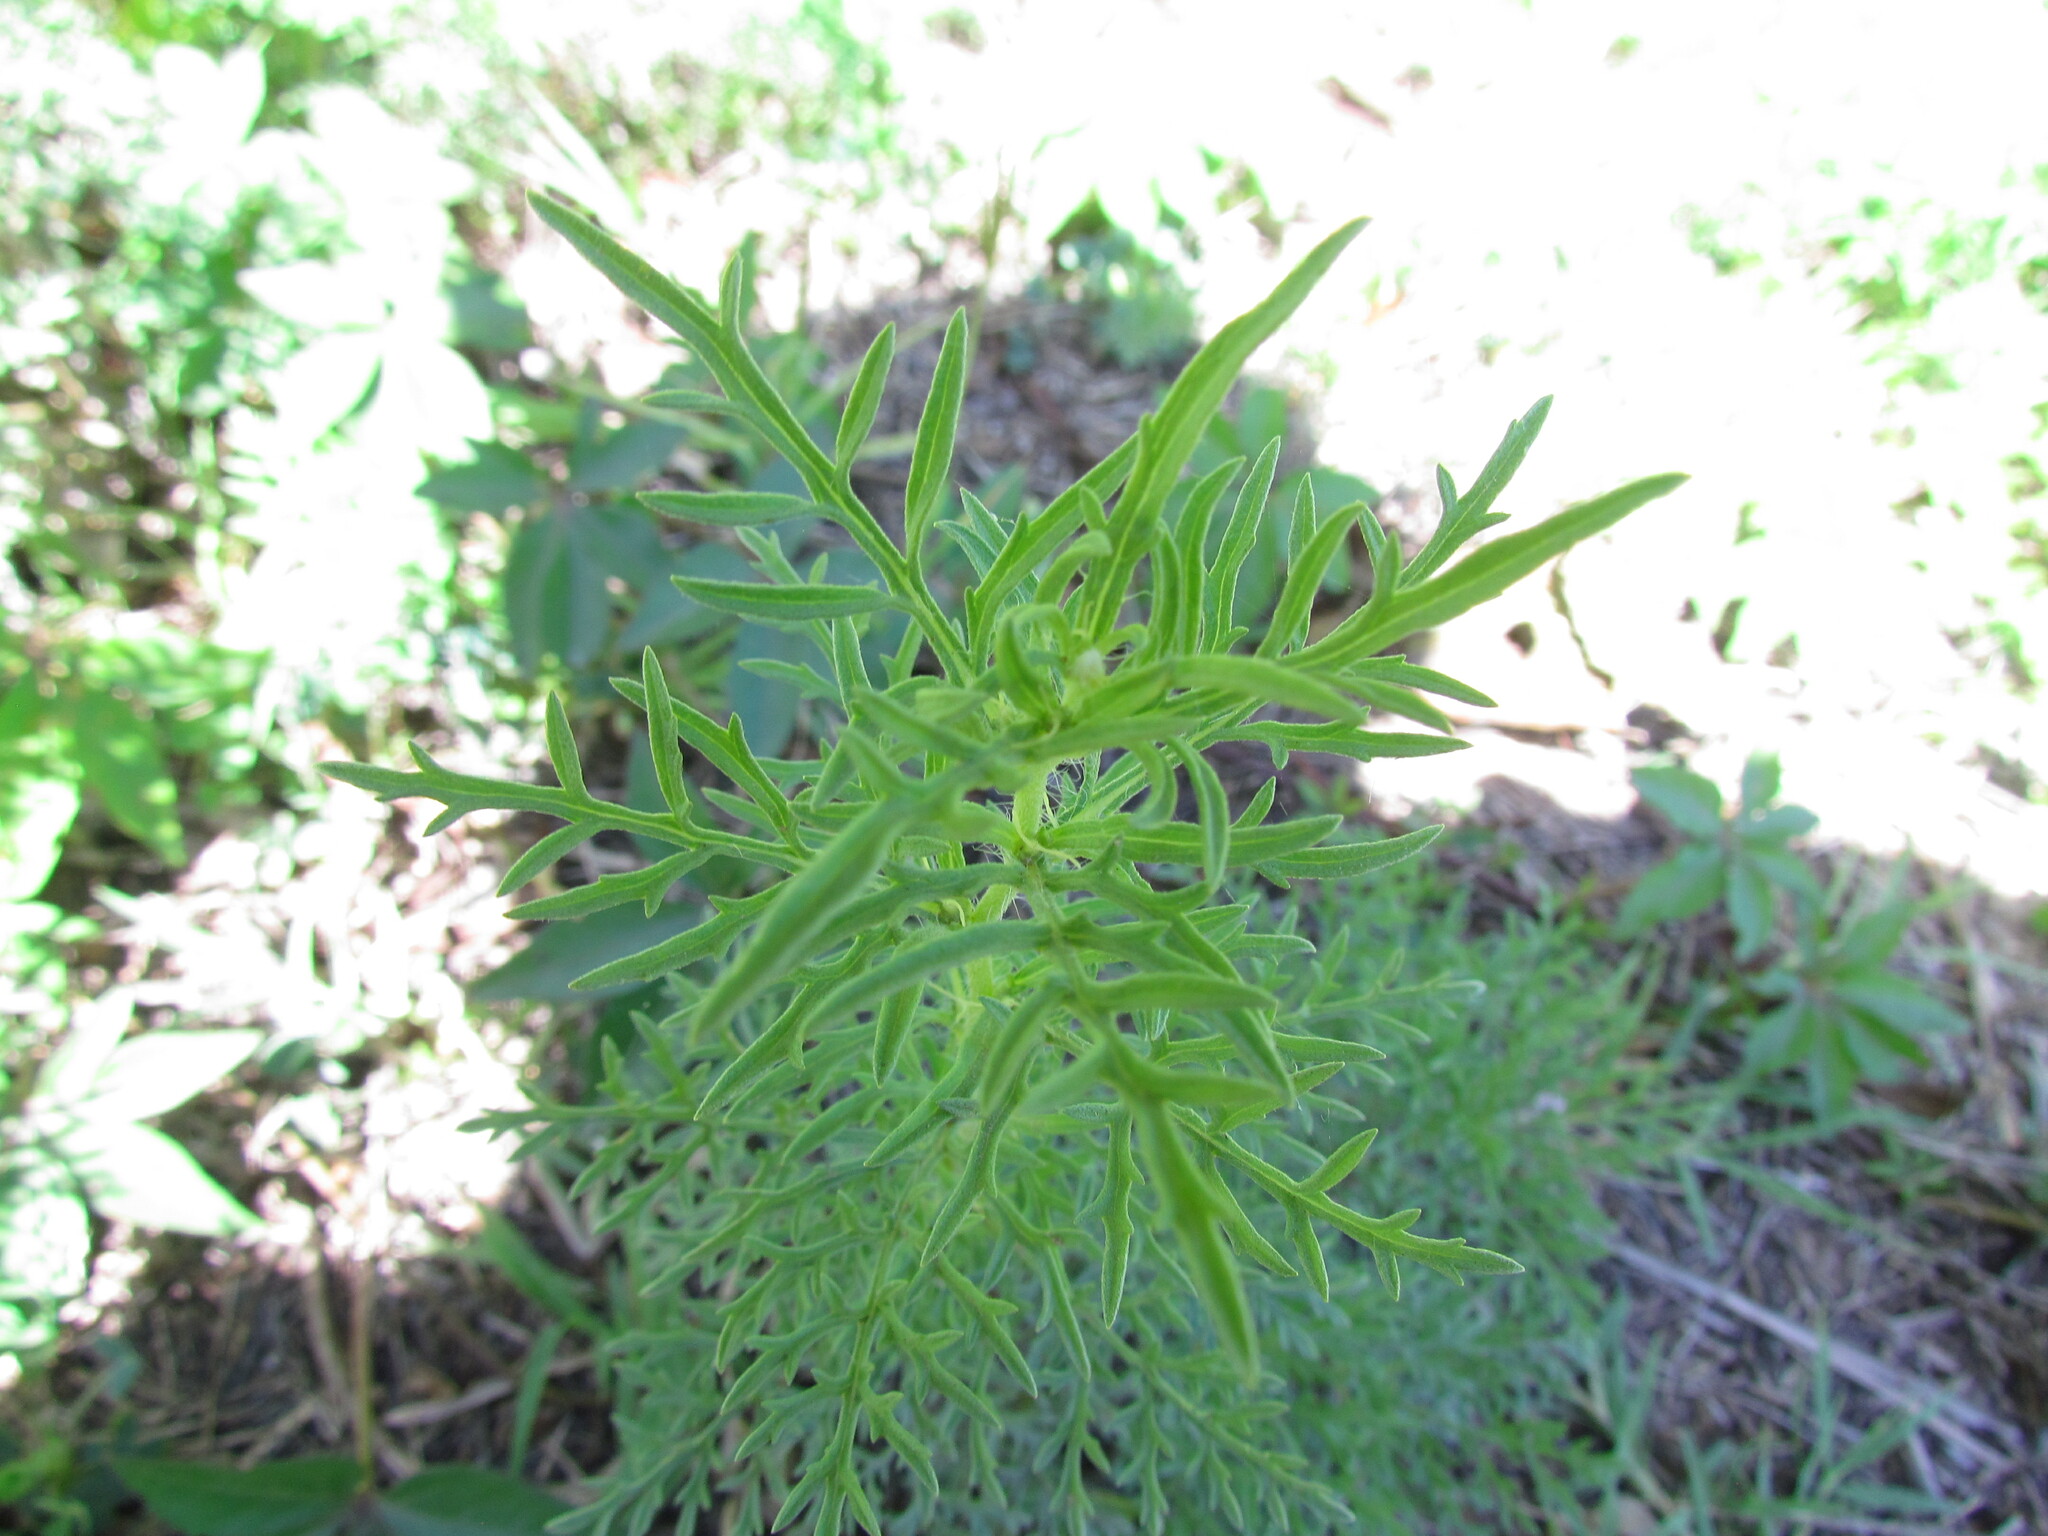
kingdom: Plantae
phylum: Tracheophyta
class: Magnoliopsida
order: Asterales
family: Asteraceae
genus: Ambrosia
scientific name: Ambrosia tenuifolia
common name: Lacy ambrosia
